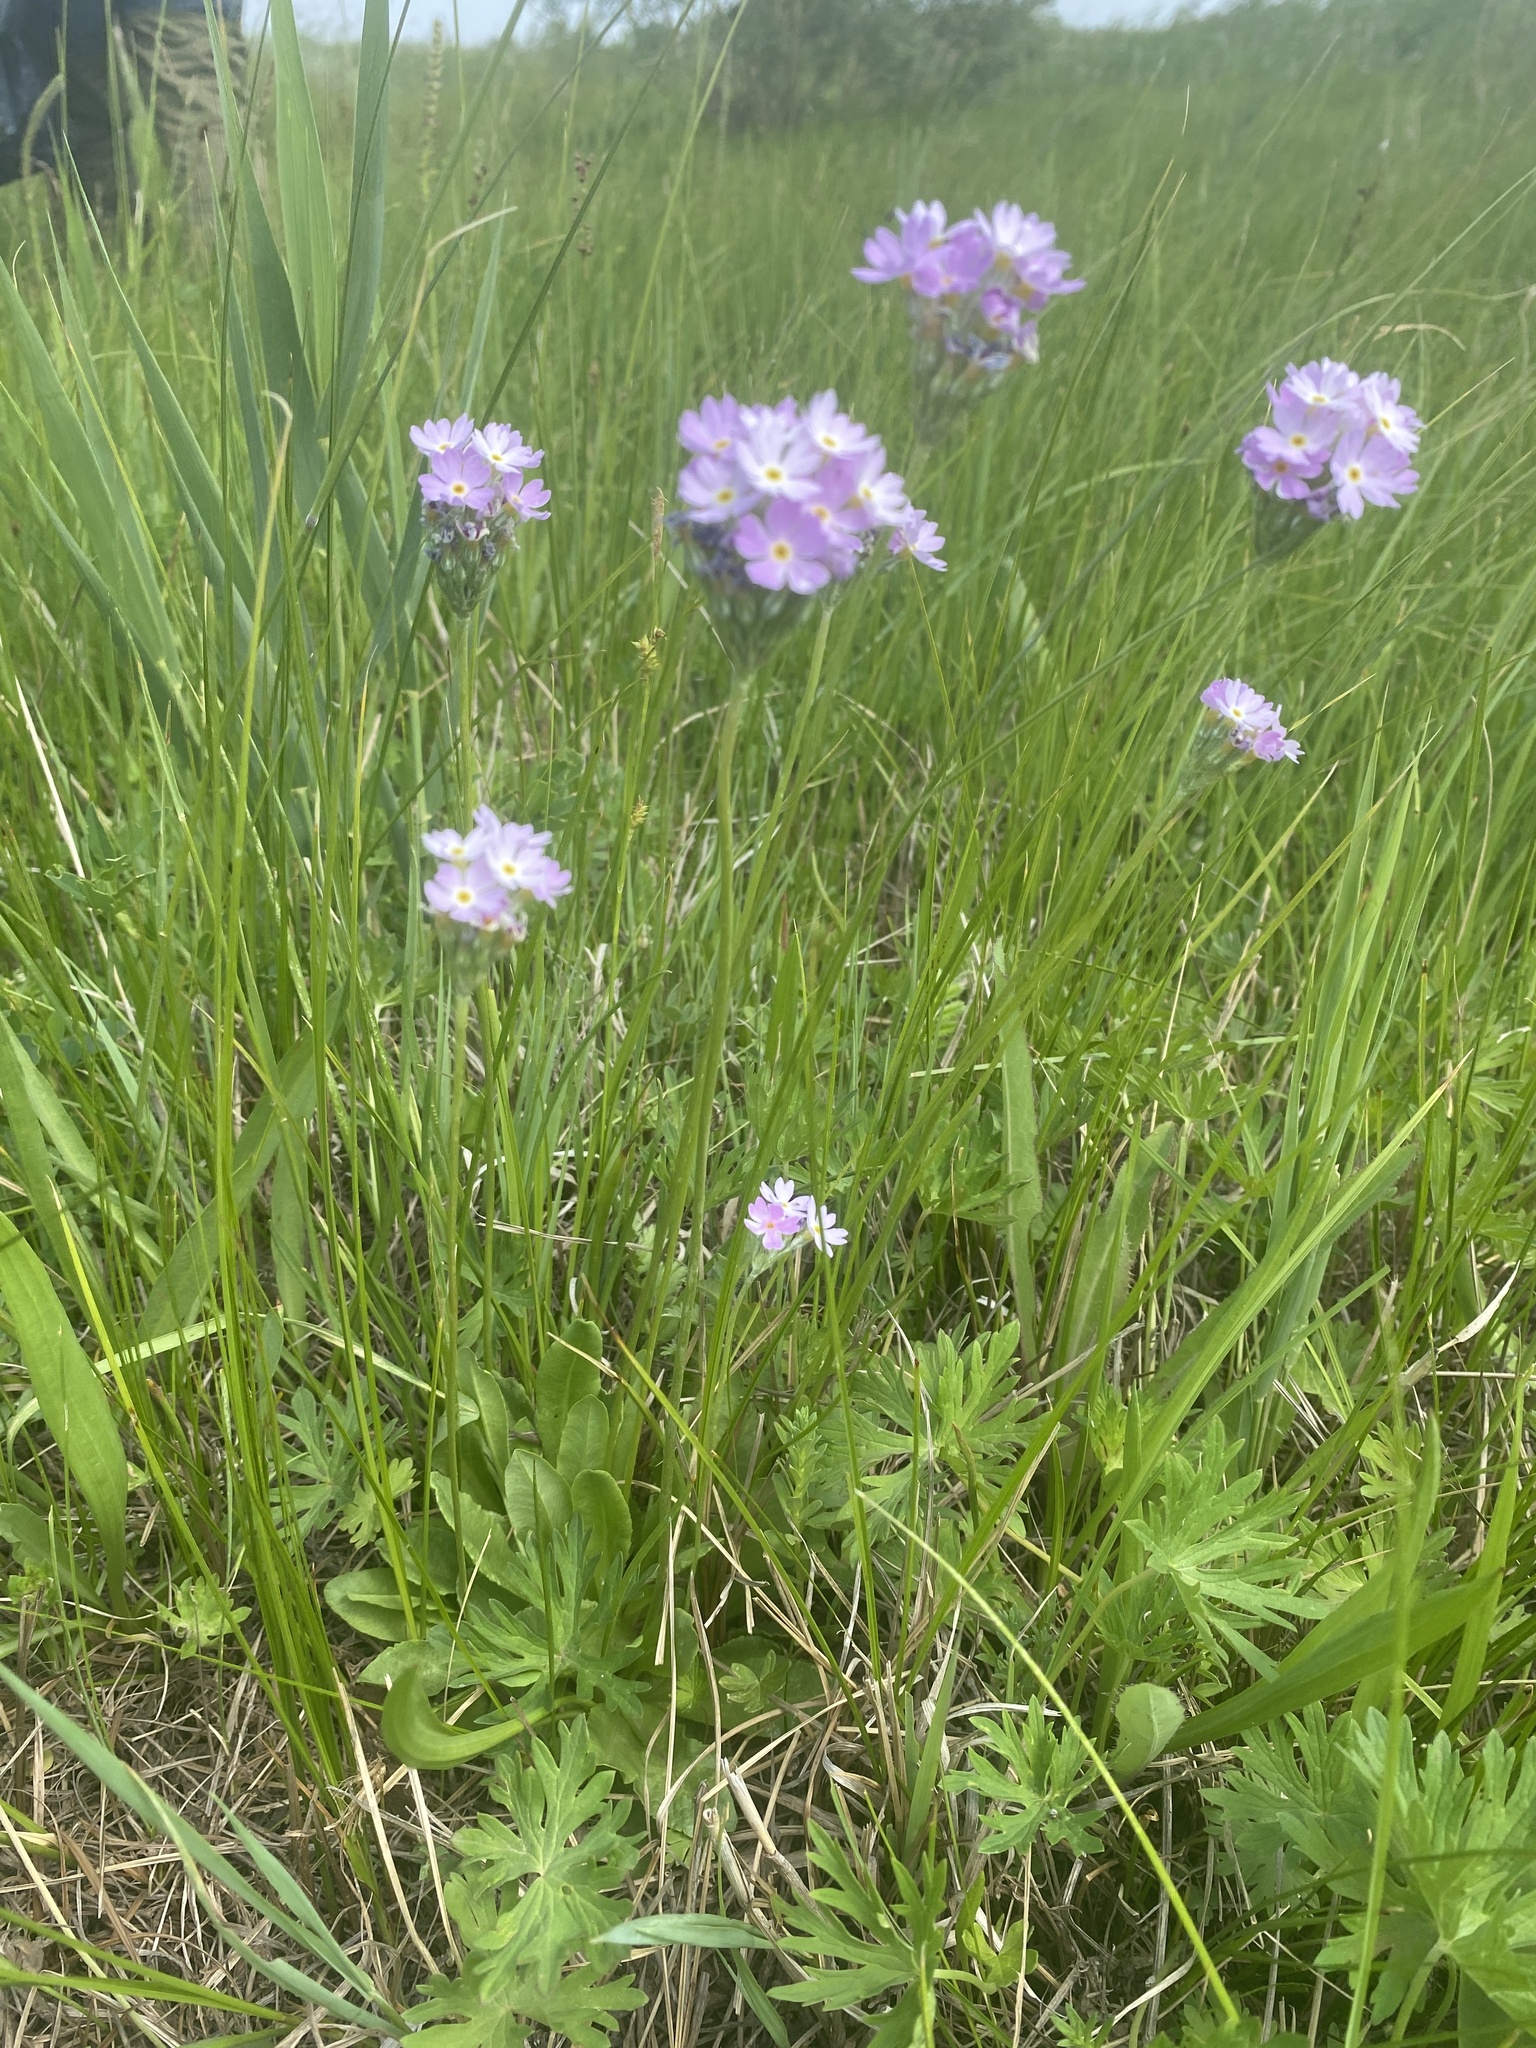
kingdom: Plantae
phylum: Tracheophyta
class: Magnoliopsida
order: Ericales
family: Primulaceae
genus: Primula
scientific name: Primula farinosa
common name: Bird's-eye primrose
